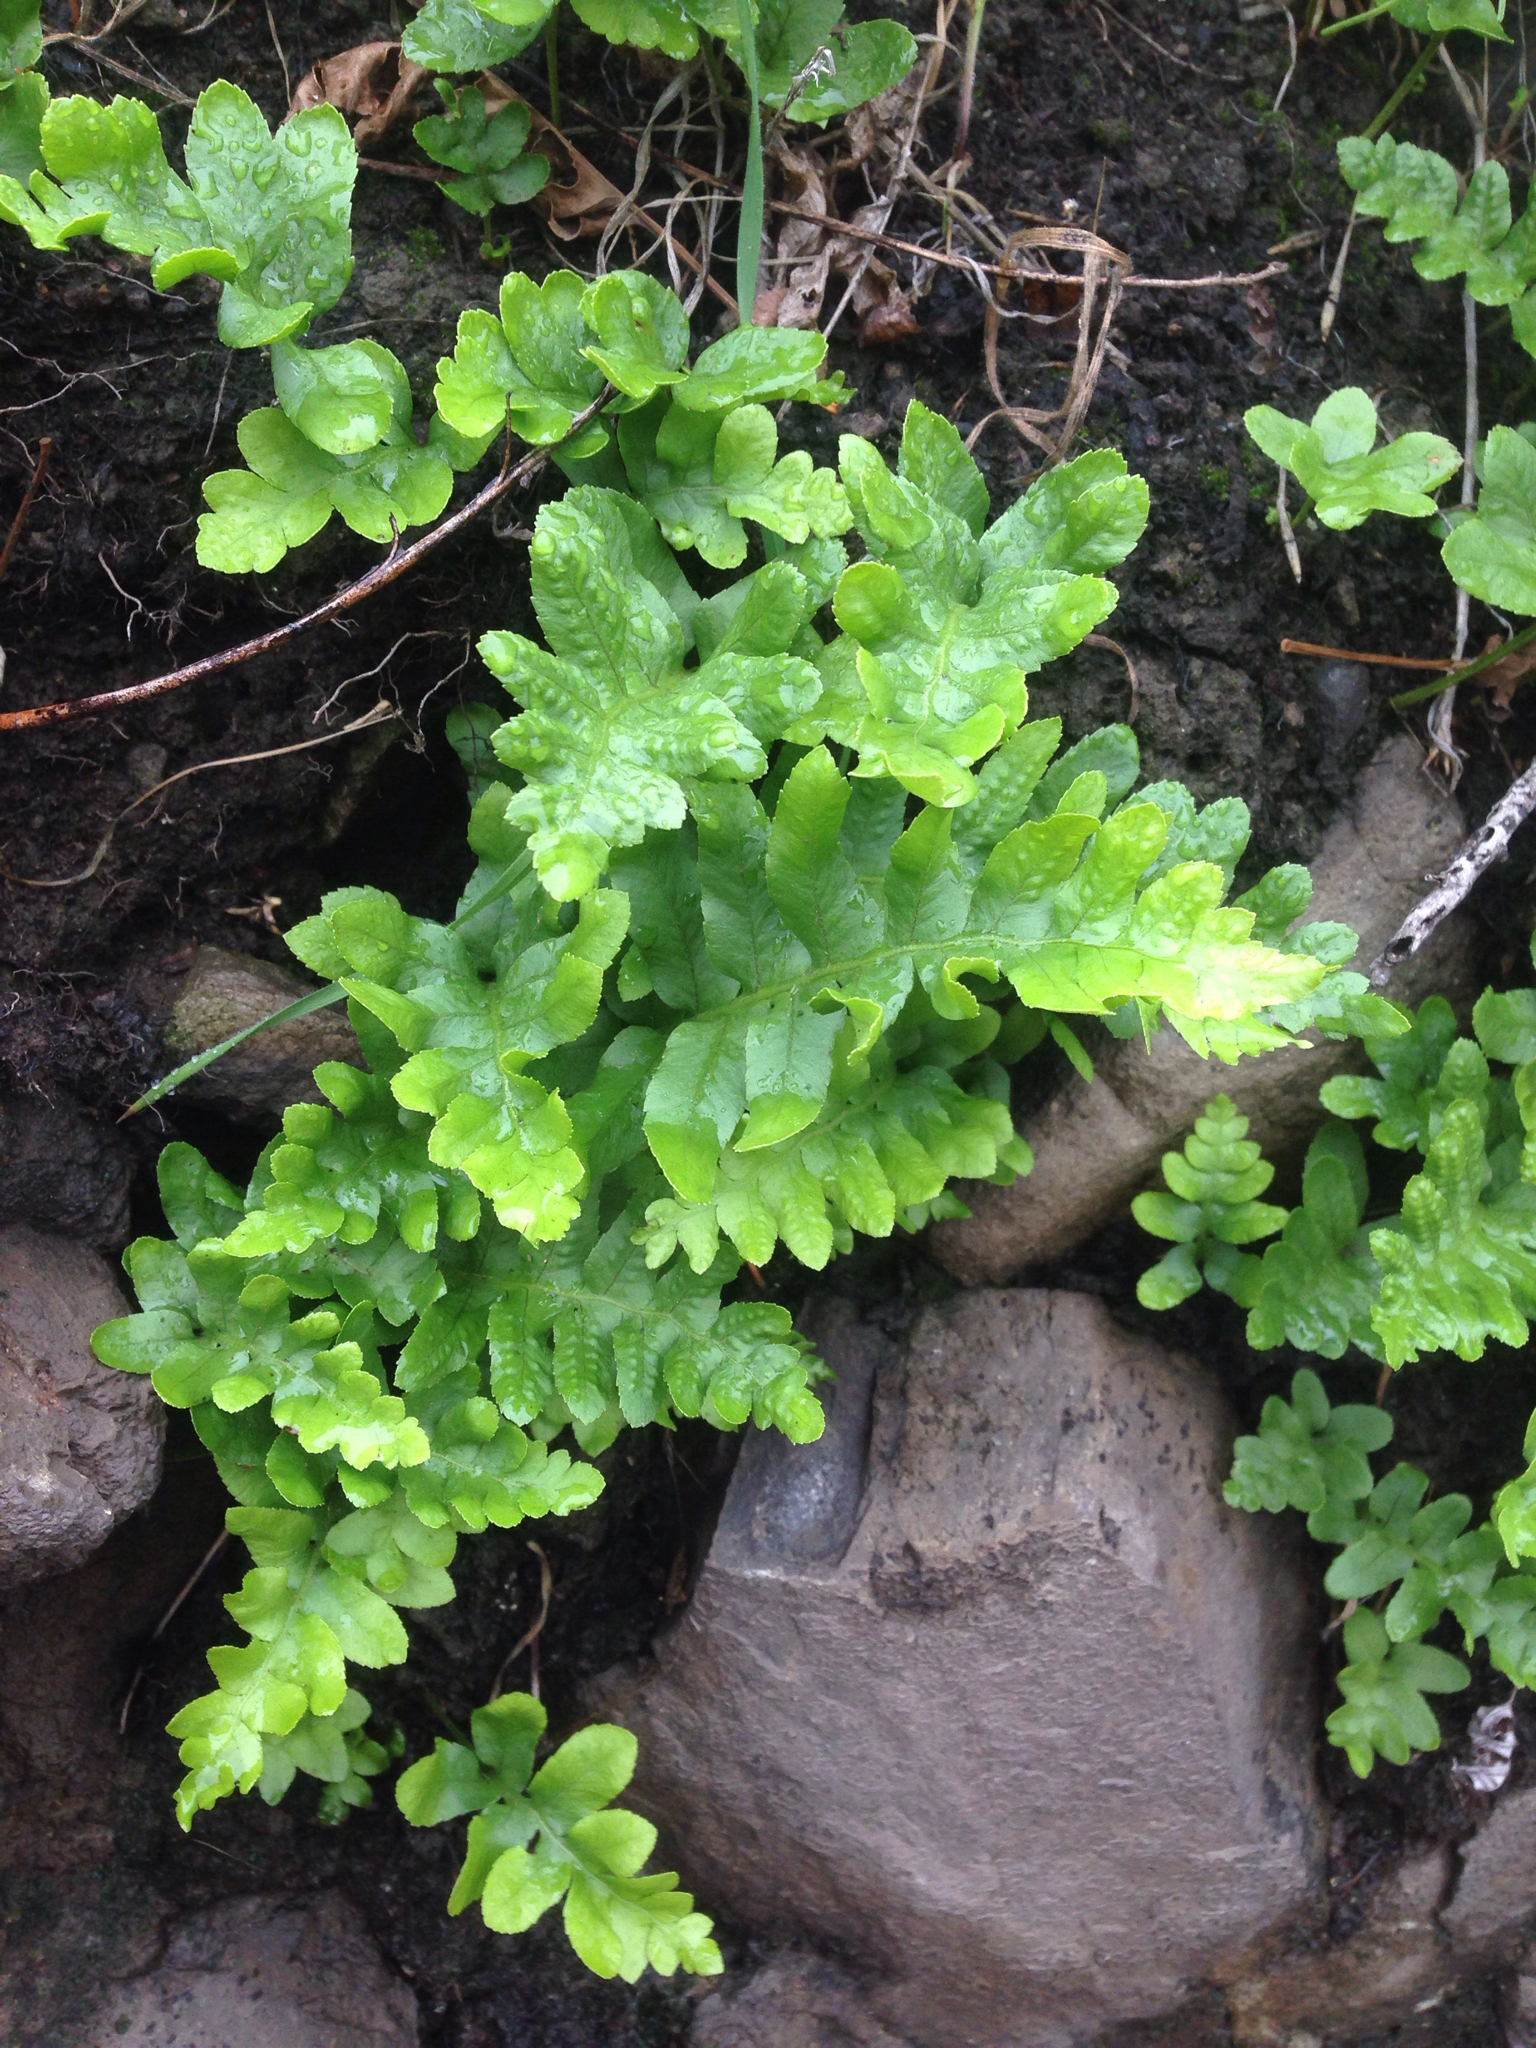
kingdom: Plantae
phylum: Tracheophyta
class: Polypodiopsida
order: Polypodiales
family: Polypodiaceae
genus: Polypodium
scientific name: Polypodium californicum
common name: California polypody
